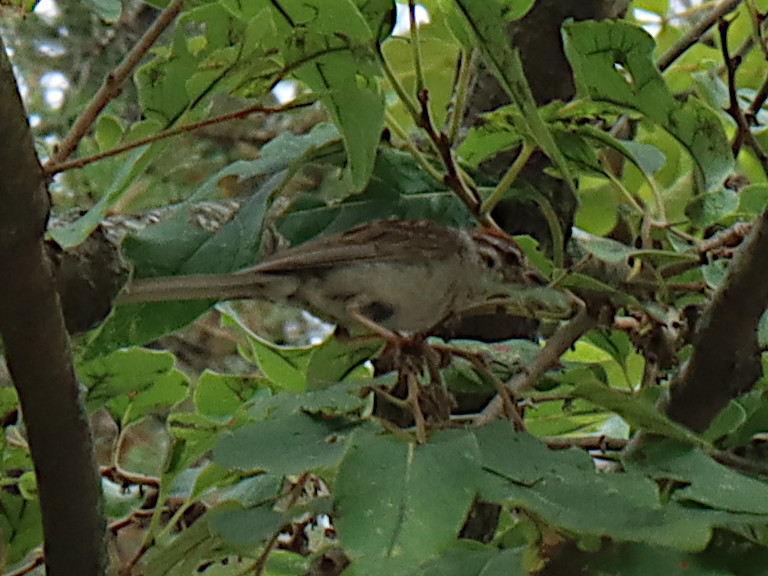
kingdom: Animalia
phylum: Chordata
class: Aves
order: Passeriformes
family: Passerellidae
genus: Spizella
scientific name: Spizella passerina
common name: Chipping sparrow
